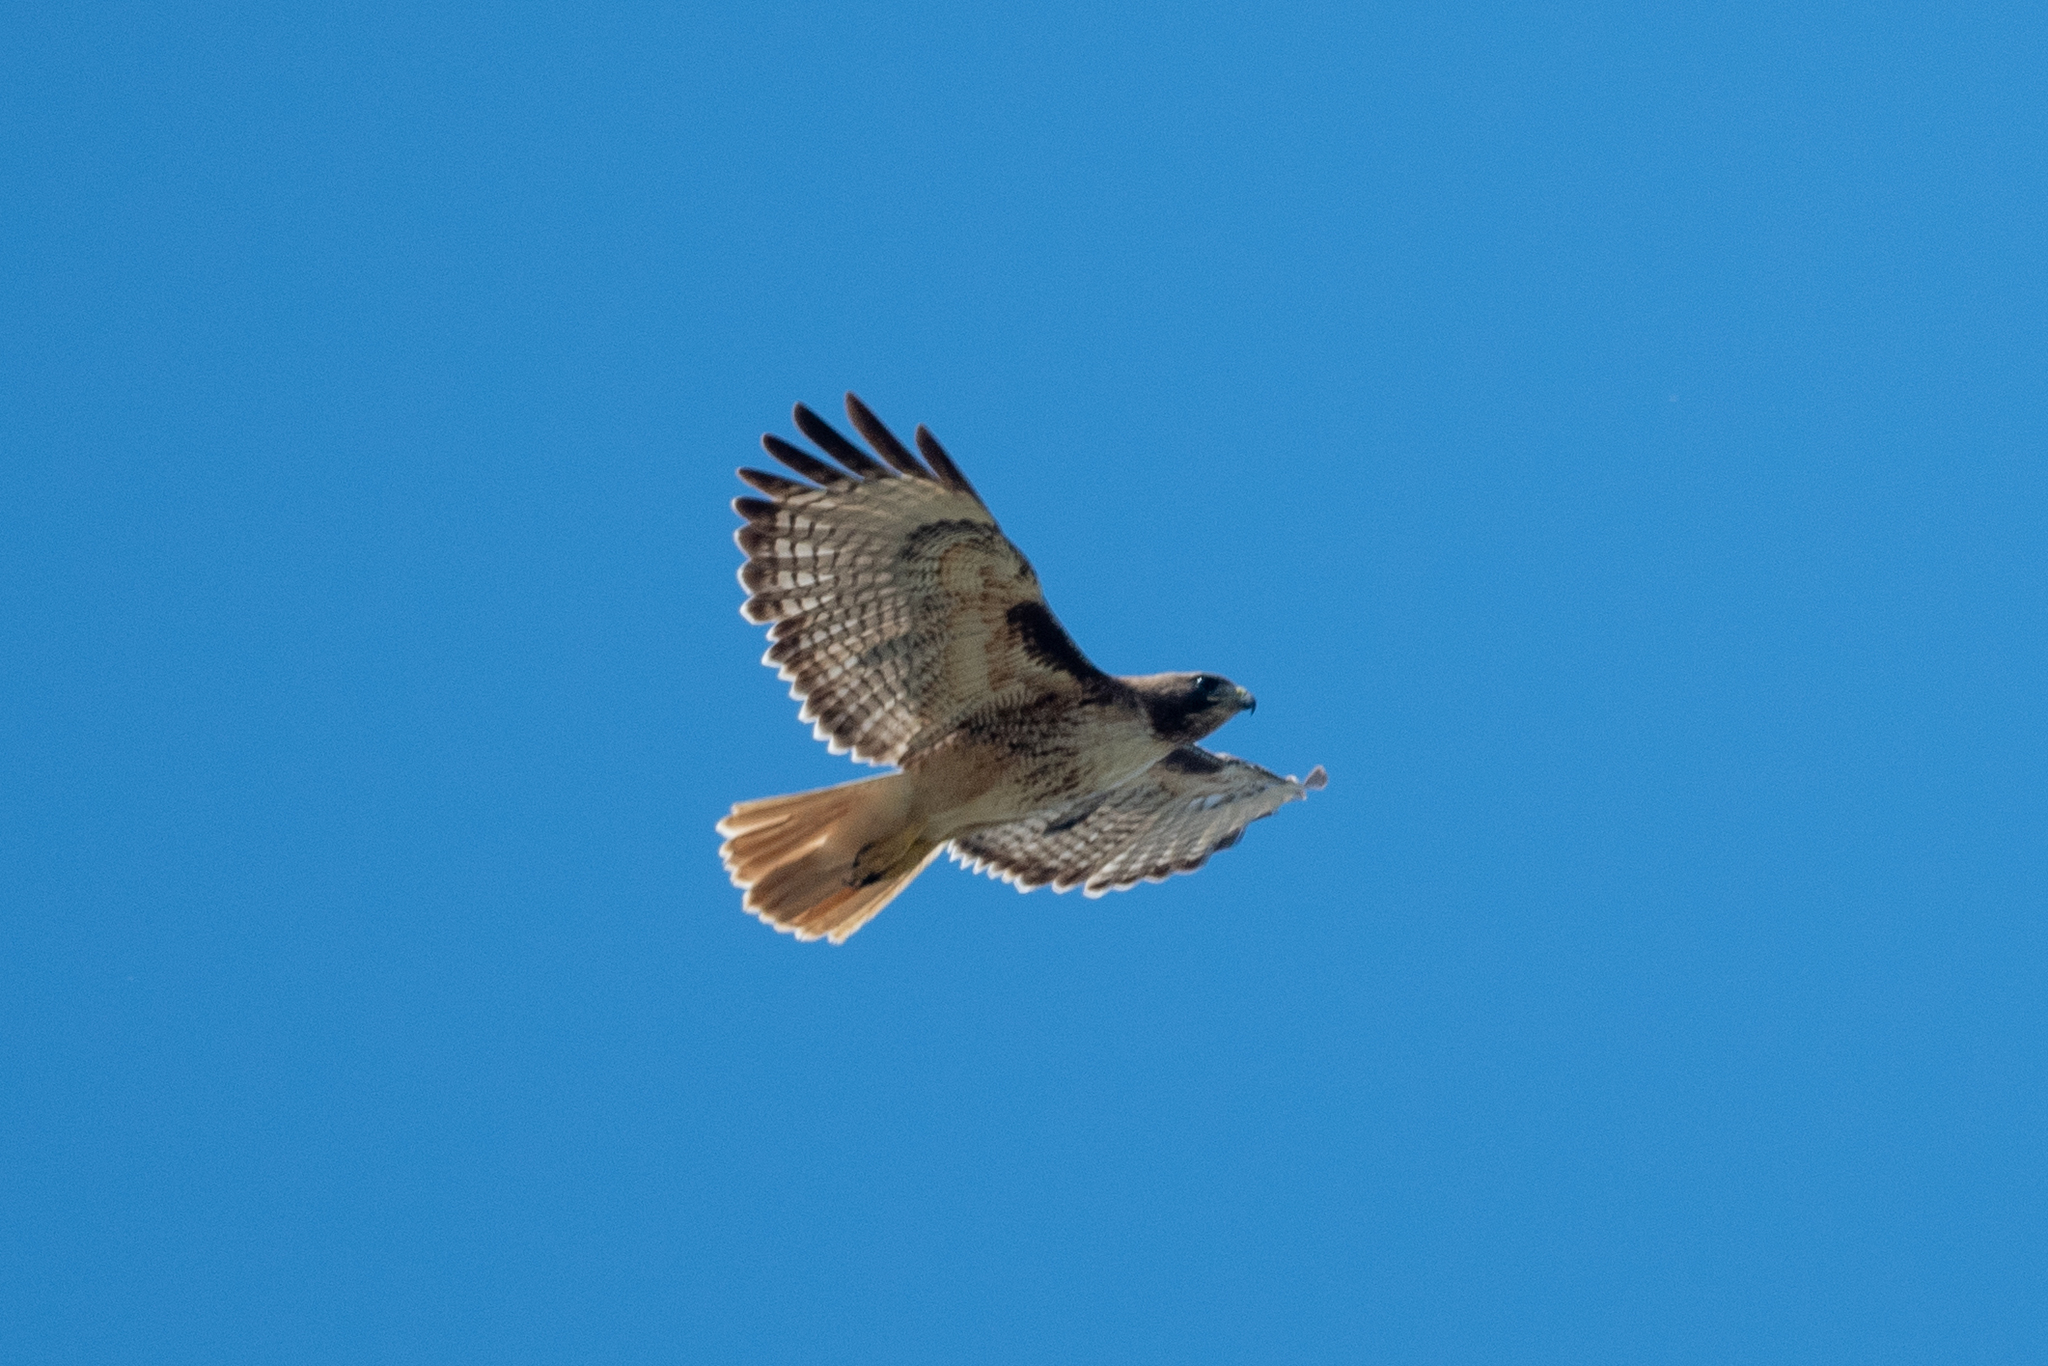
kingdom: Animalia
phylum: Chordata
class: Aves
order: Accipitriformes
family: Accipitridae
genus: Buteo
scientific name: Buteo jamaicensis
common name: Red-tailed hawk
